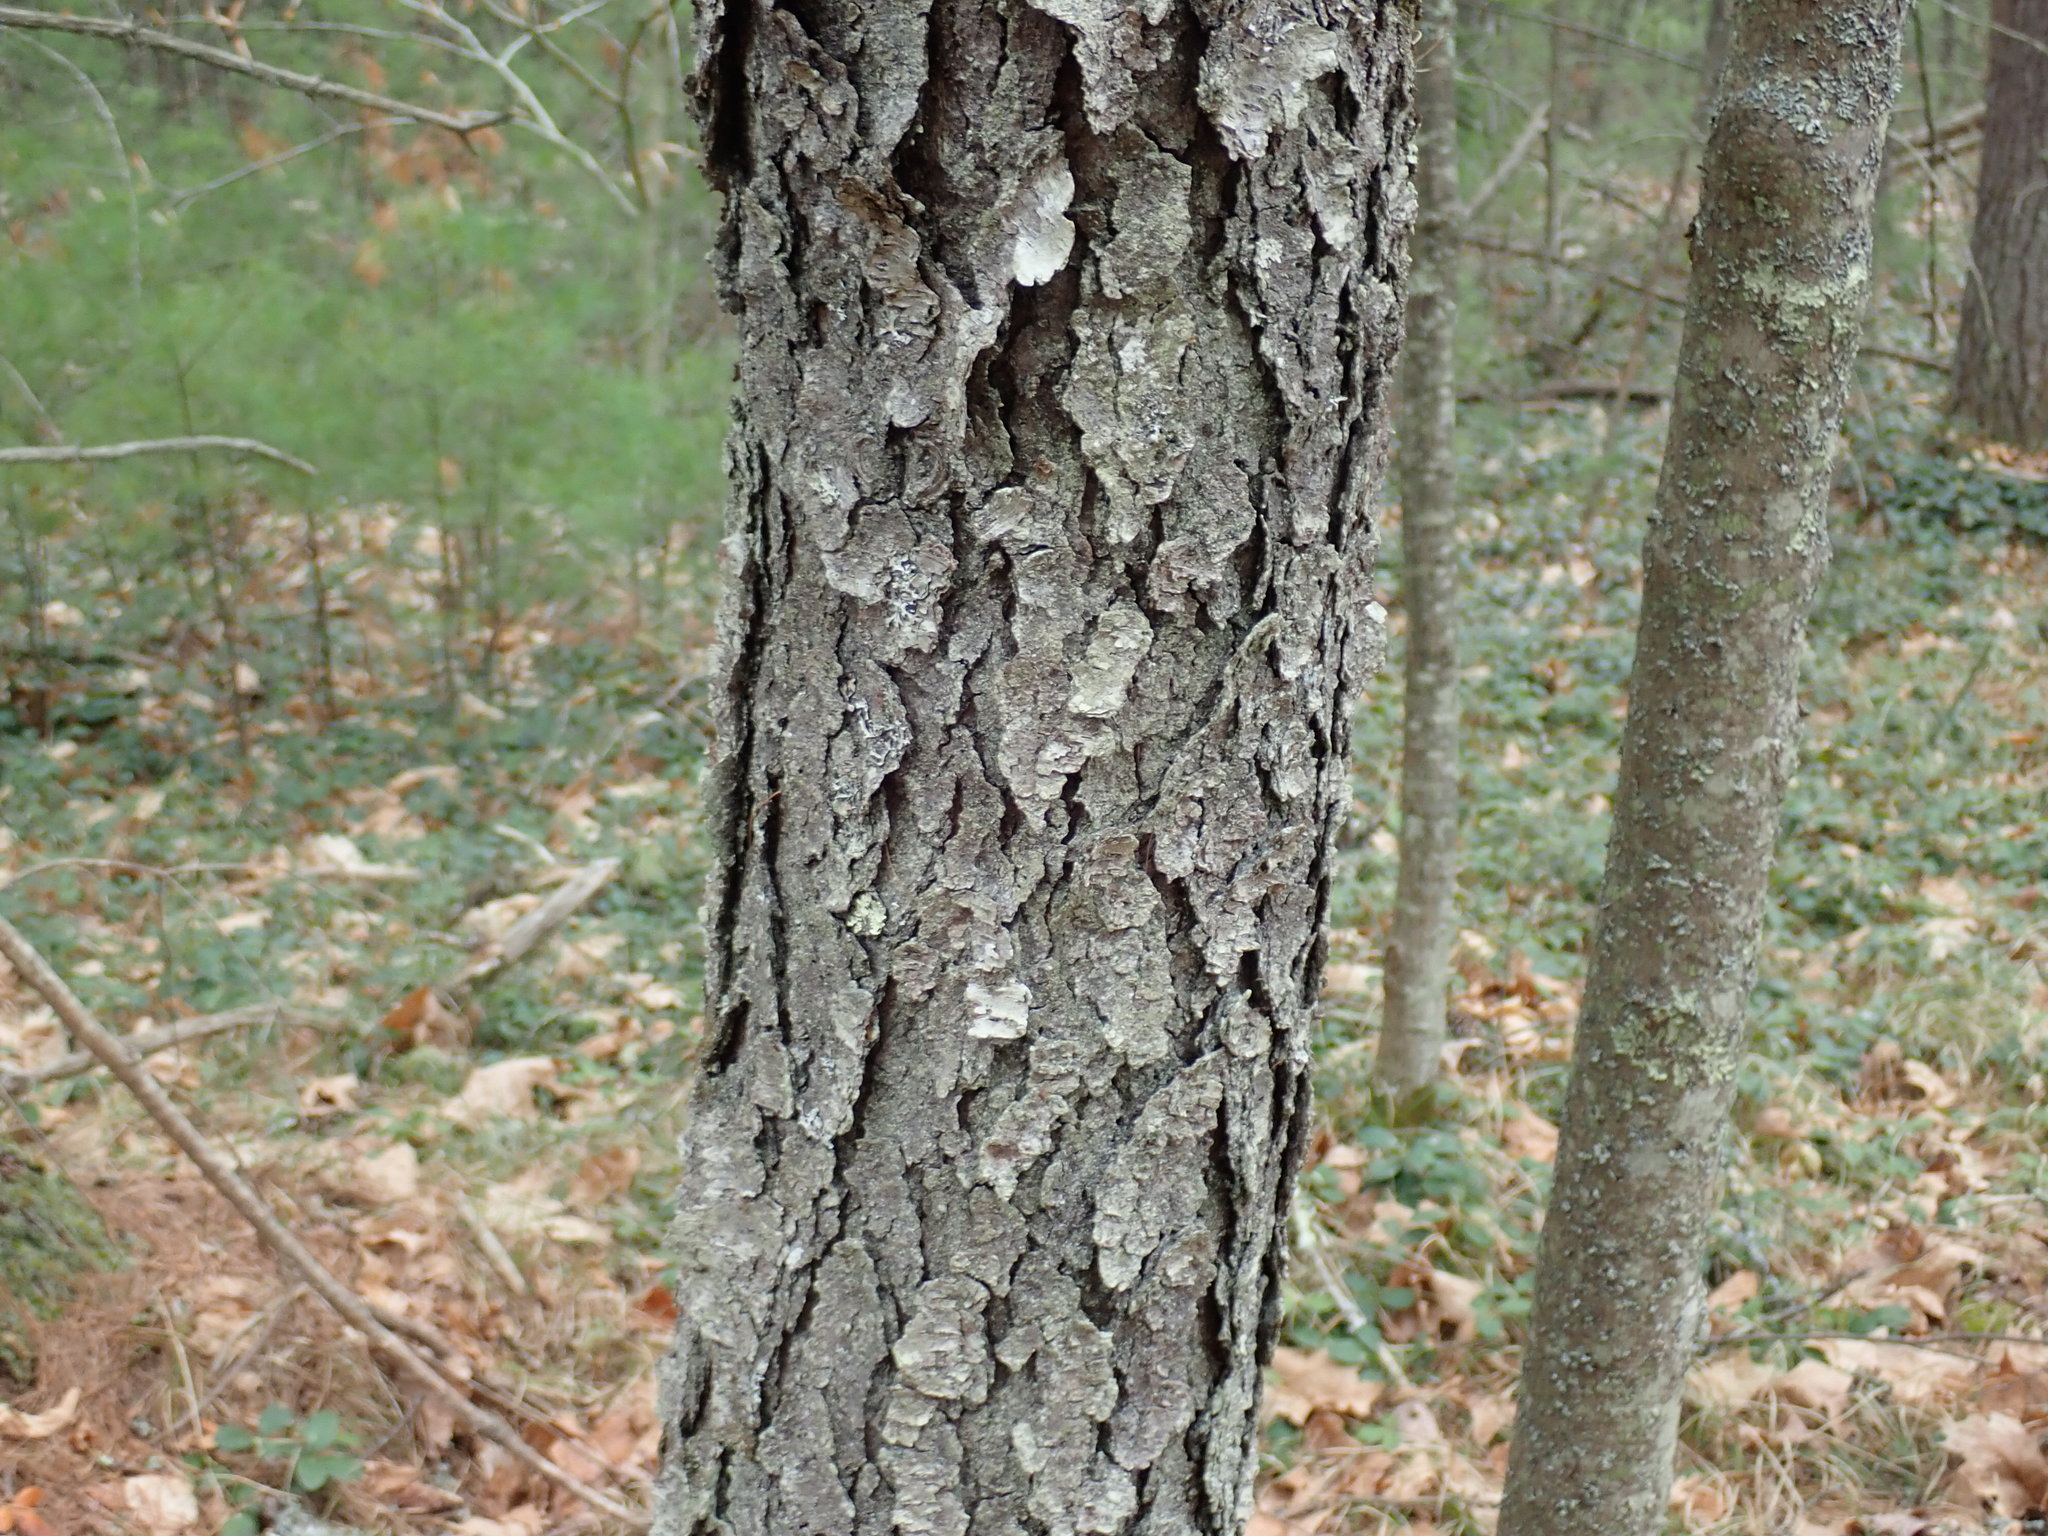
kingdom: Plantae
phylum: Tracheophyta
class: Magnoliopsida
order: Rosales
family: Rosaceae
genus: Prunus
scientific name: Prunus serotina
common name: Black cherry
